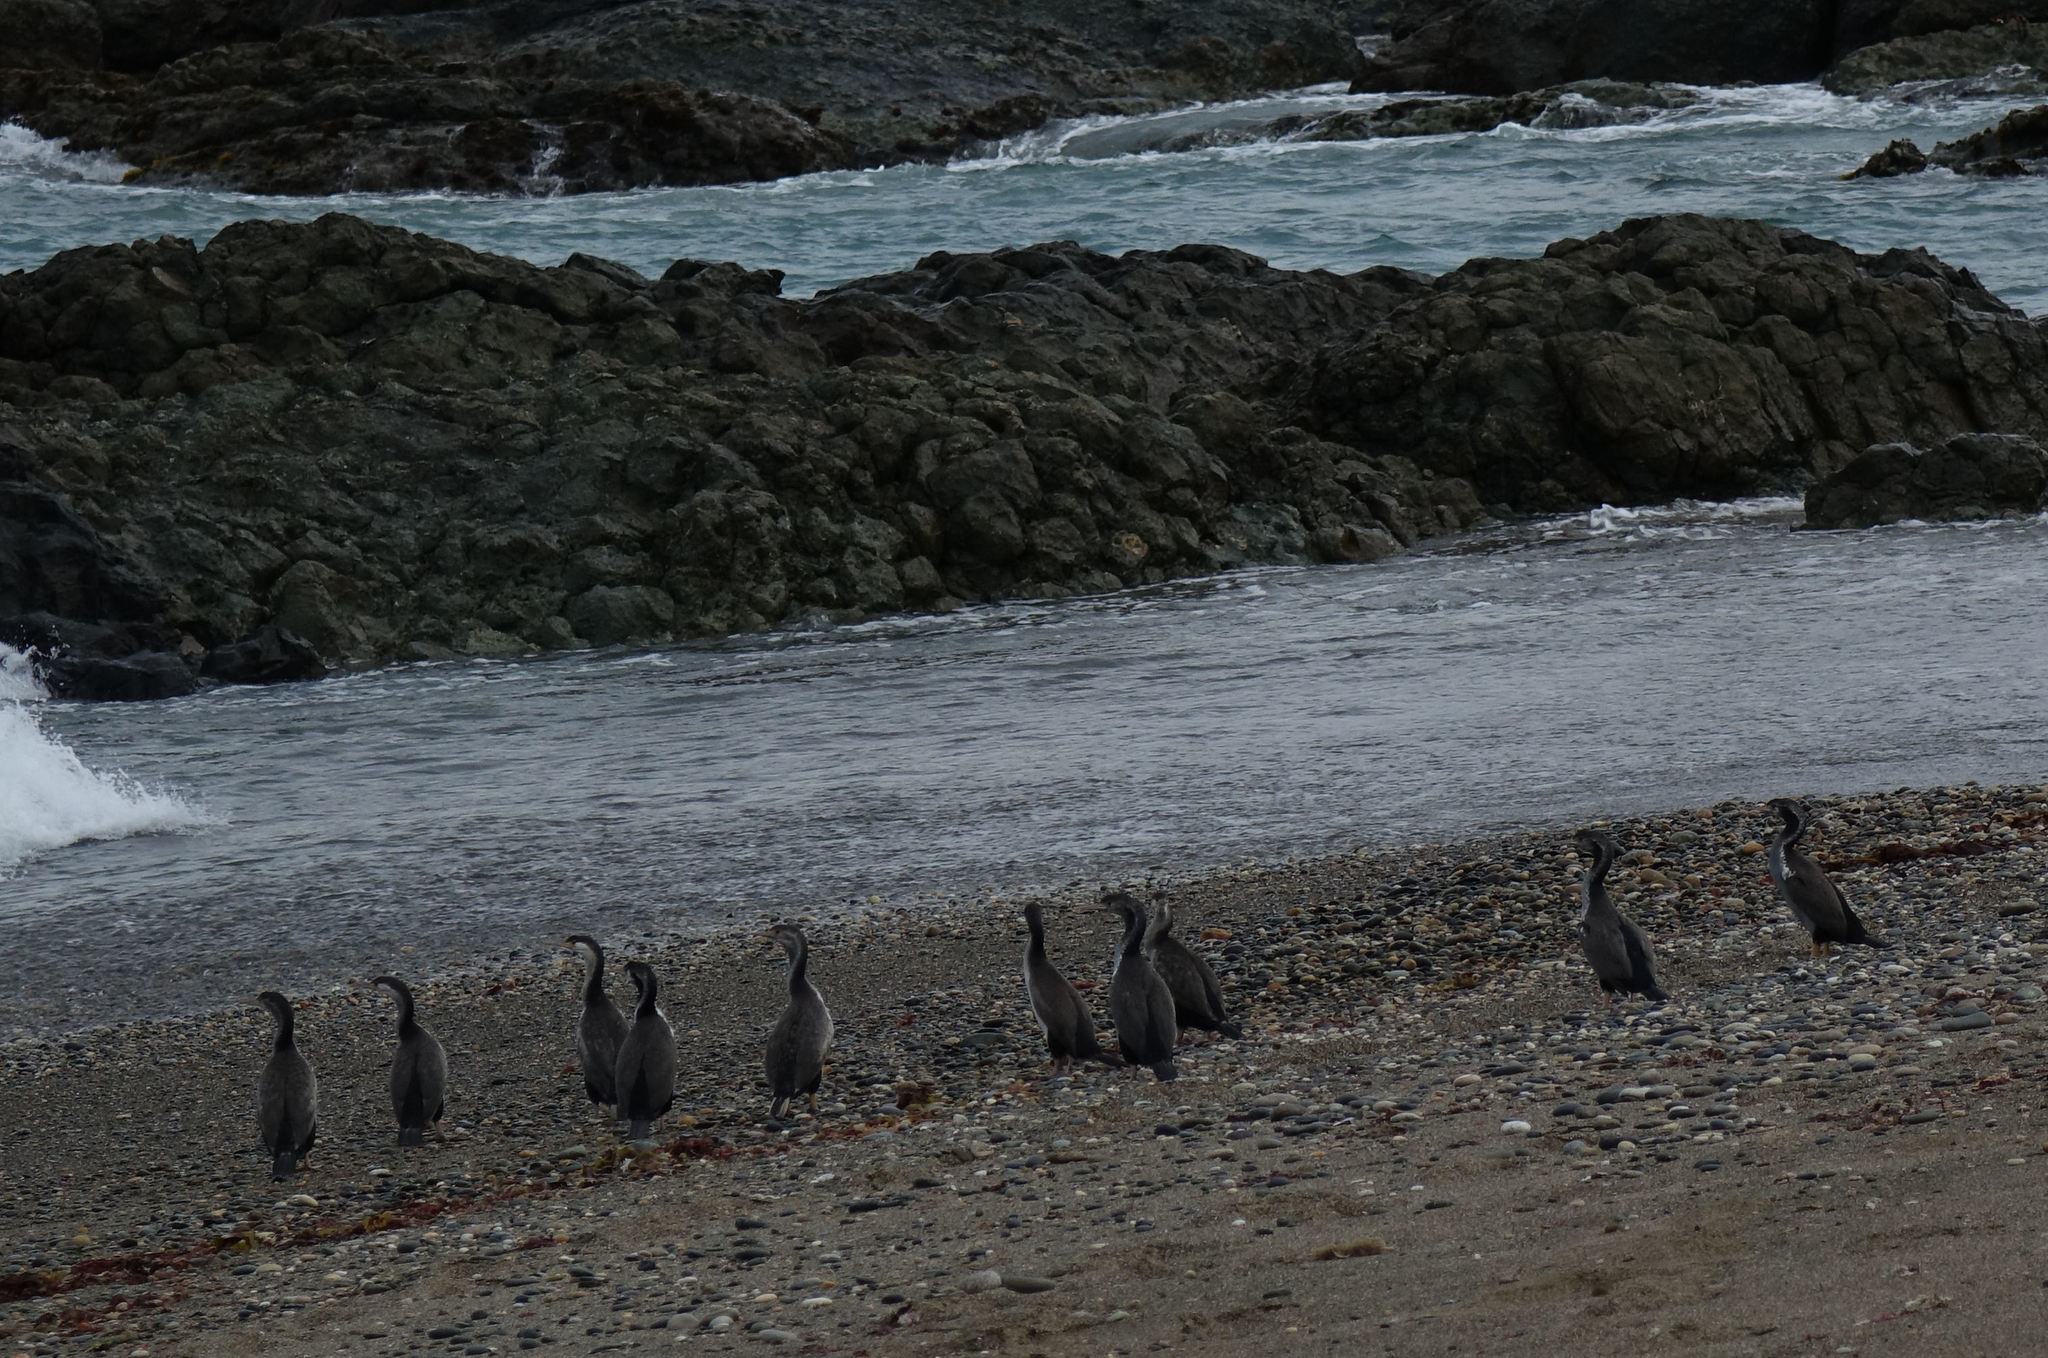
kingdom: Animalia
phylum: Chordata
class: Aves
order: Suliformes
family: Phalacrocoracidae
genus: Phalacrocorax
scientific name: Phalacrocorax punctatus
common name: Spotted shag
